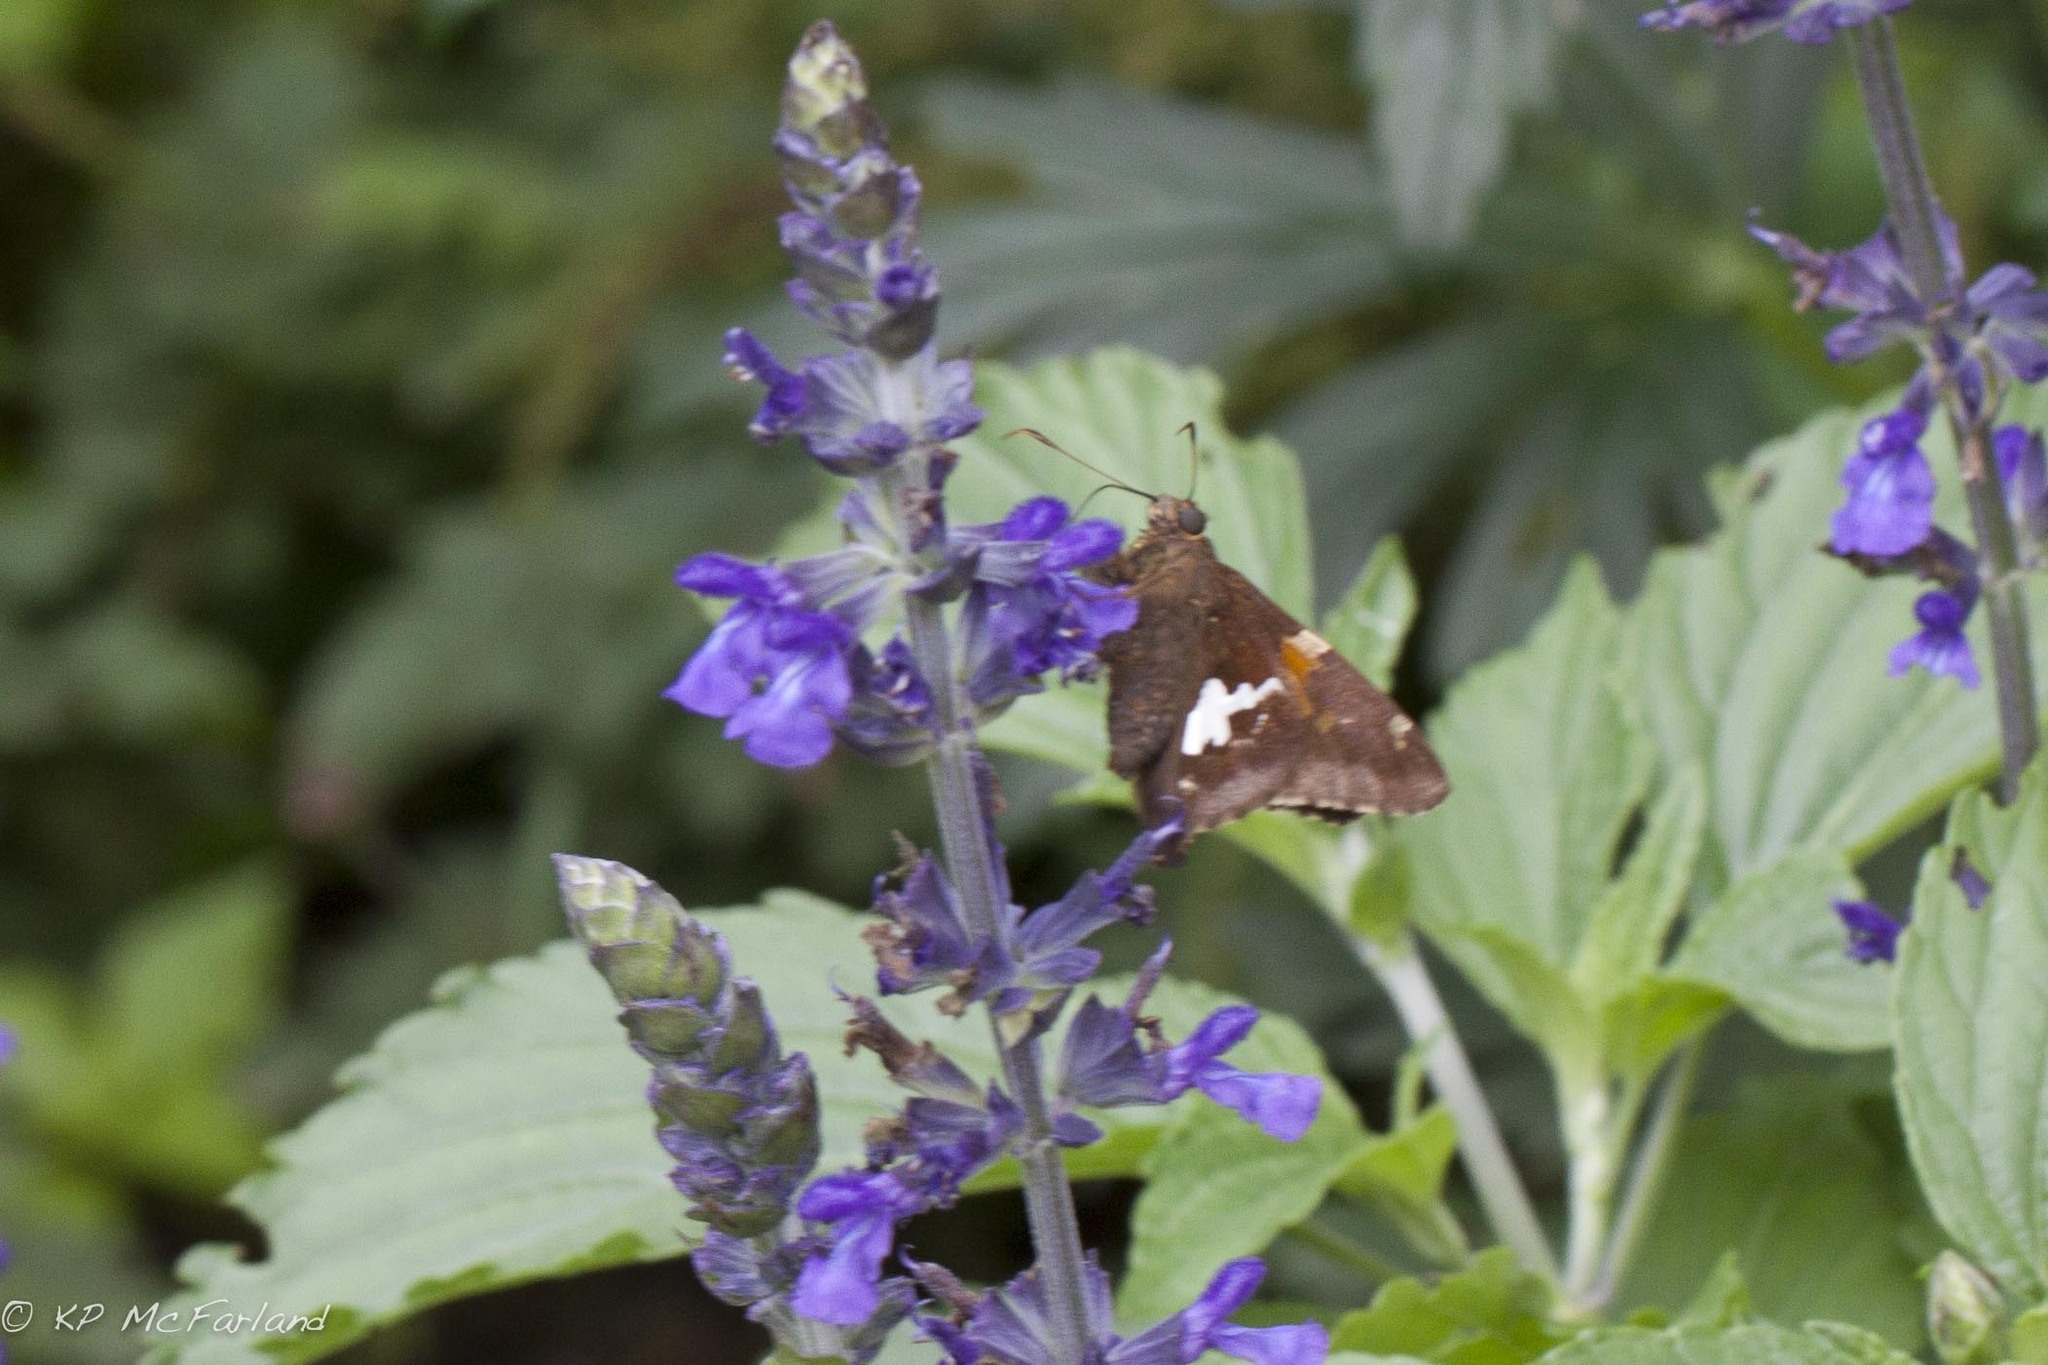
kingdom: Animalia
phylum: Arthropoda
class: Insecta
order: Lepidoptera
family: Hesperiidae
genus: Epargyreus
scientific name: Epargyreus clarus
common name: Silver-spotted skipper
